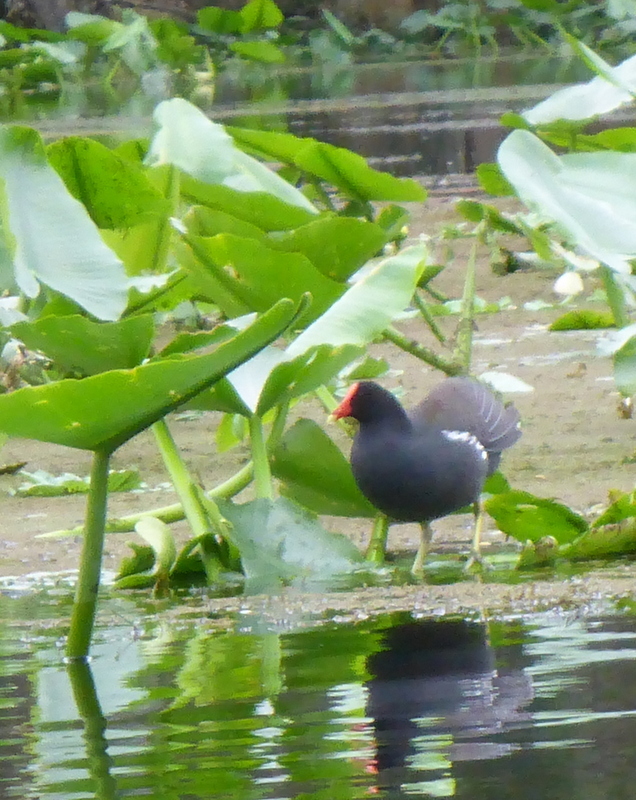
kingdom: Animalia
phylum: Chordata
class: Aves
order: Gruiformes
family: Rallidae
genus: Gallinula
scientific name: Gallinula chloropus
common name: Common moorhen
